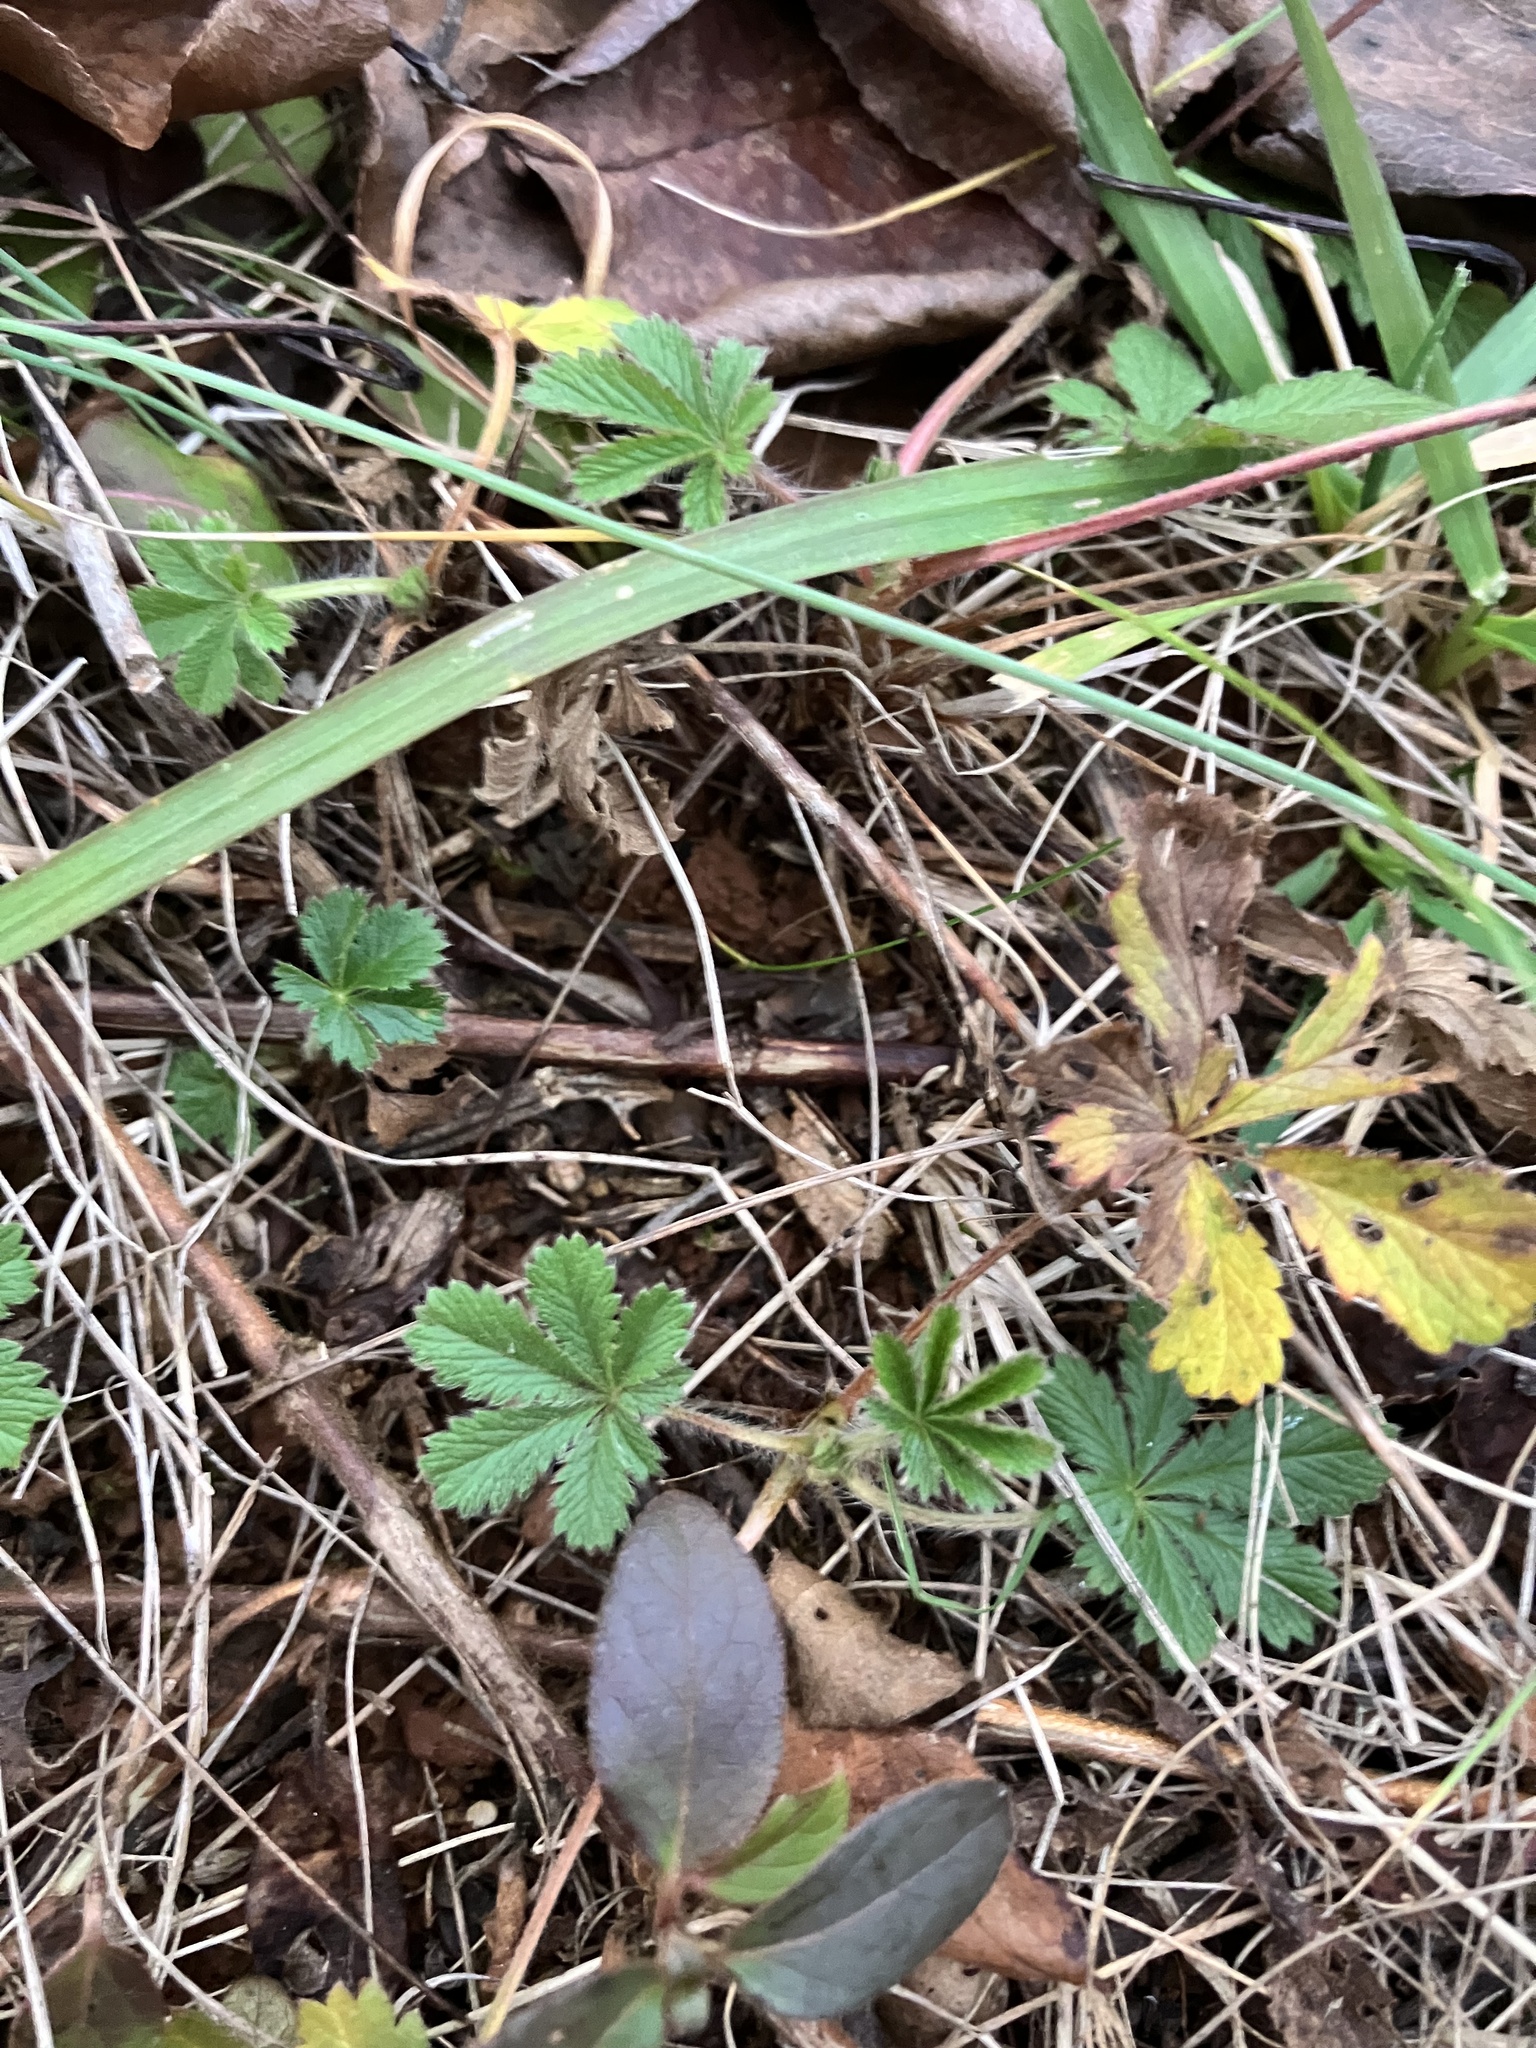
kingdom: Plantae
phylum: Tracheophyta
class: Magnoliopsida
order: Rosales
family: Rosaceae
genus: Potentilla
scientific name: Potentilla simplex
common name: Old field cinquefoil
